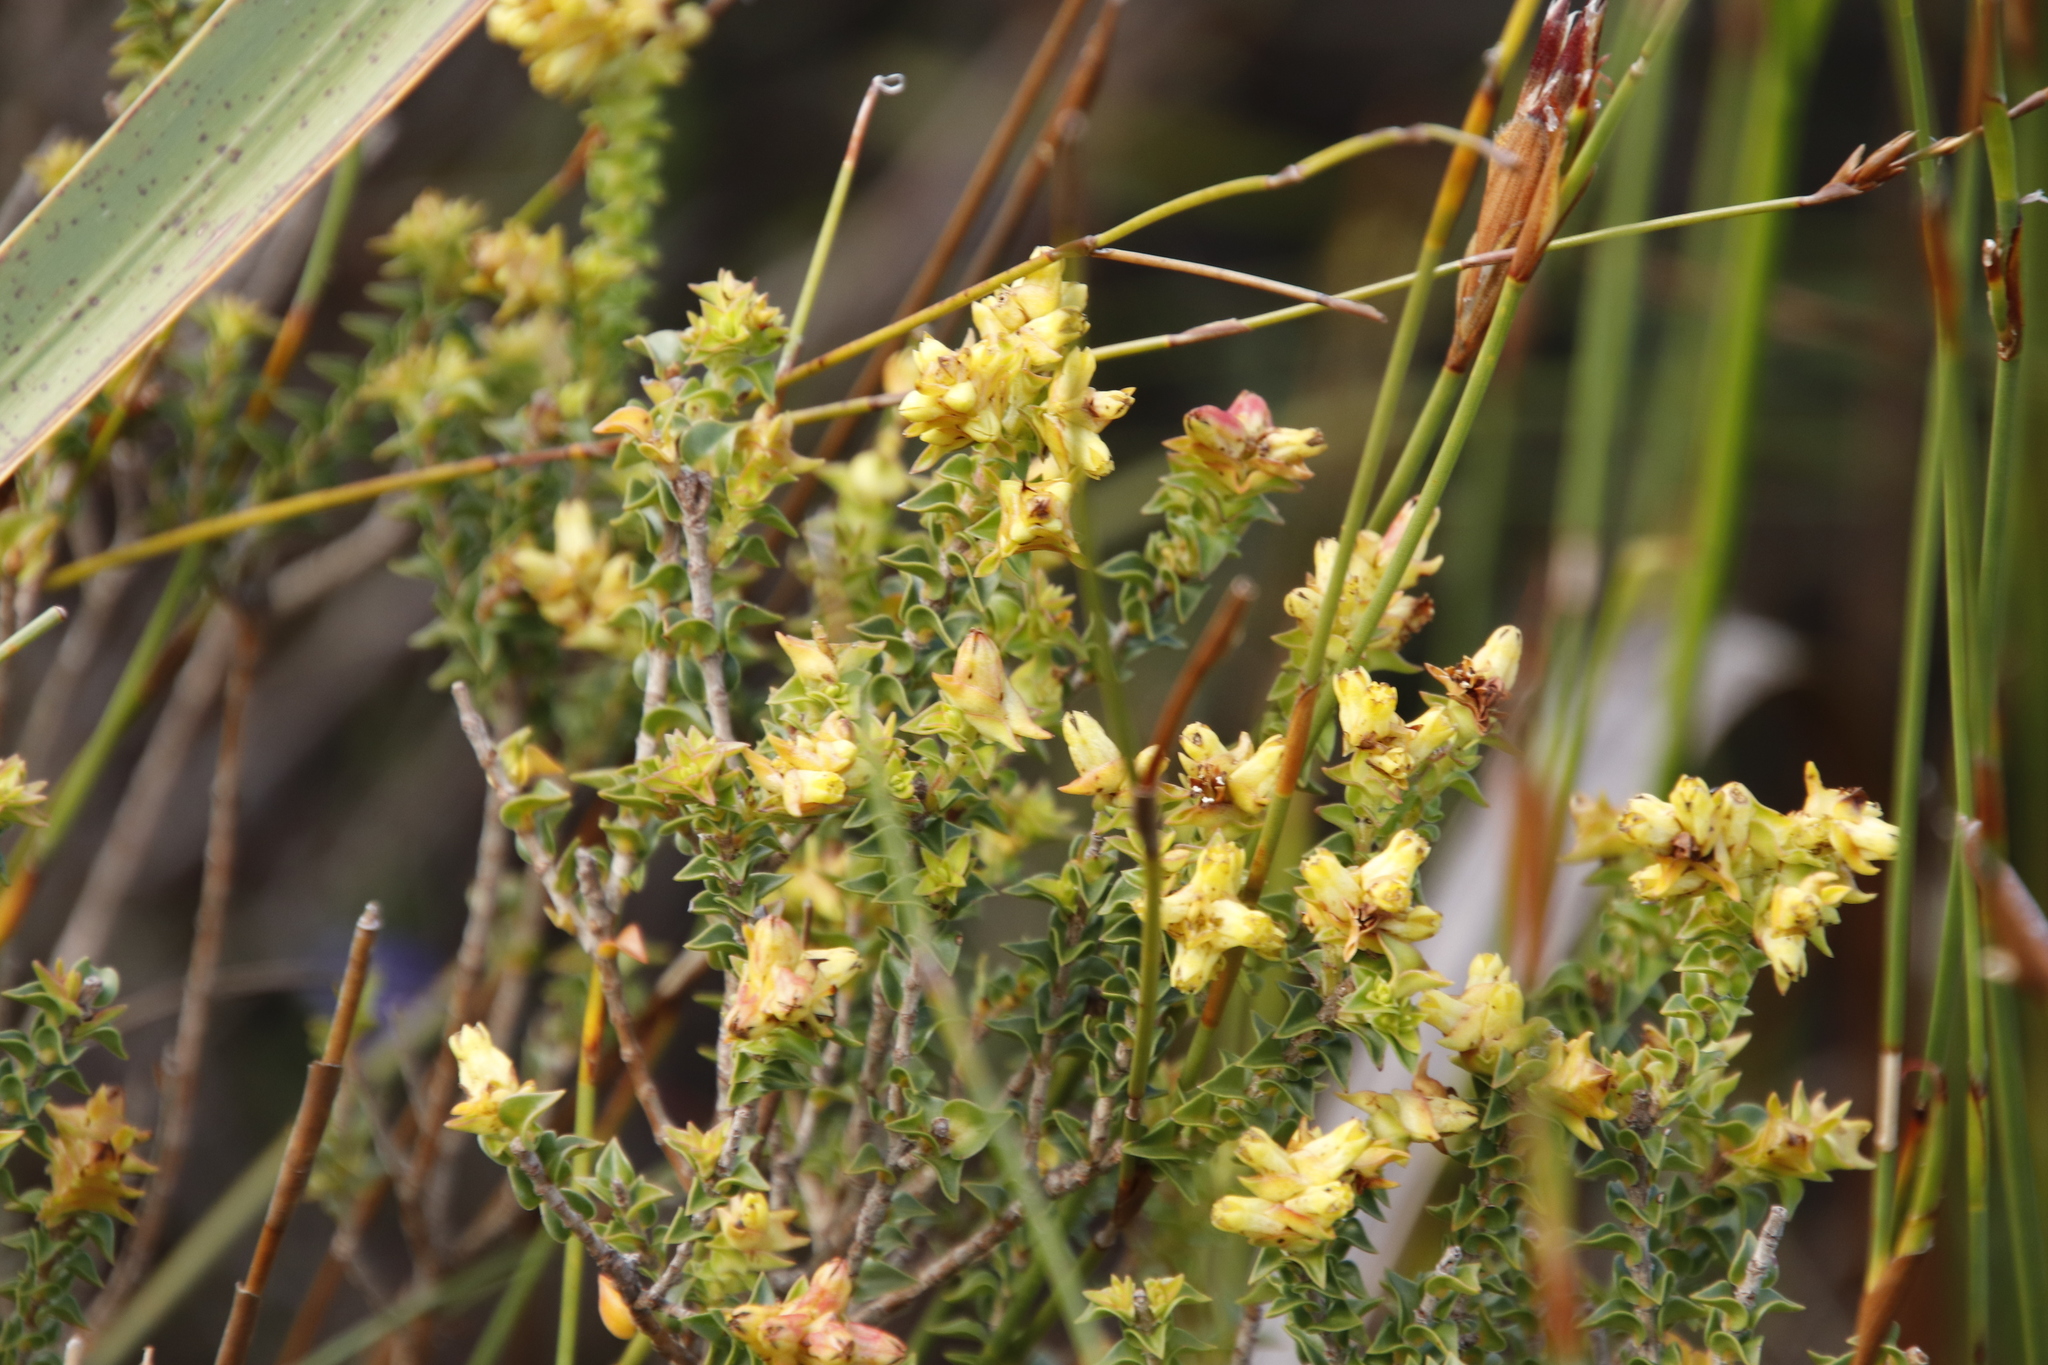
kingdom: Plantae
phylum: Tracheophyta
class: Magnoliopsida
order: Myrtales
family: Penaeaceae
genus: Penaea
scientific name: Penaea mucronata
